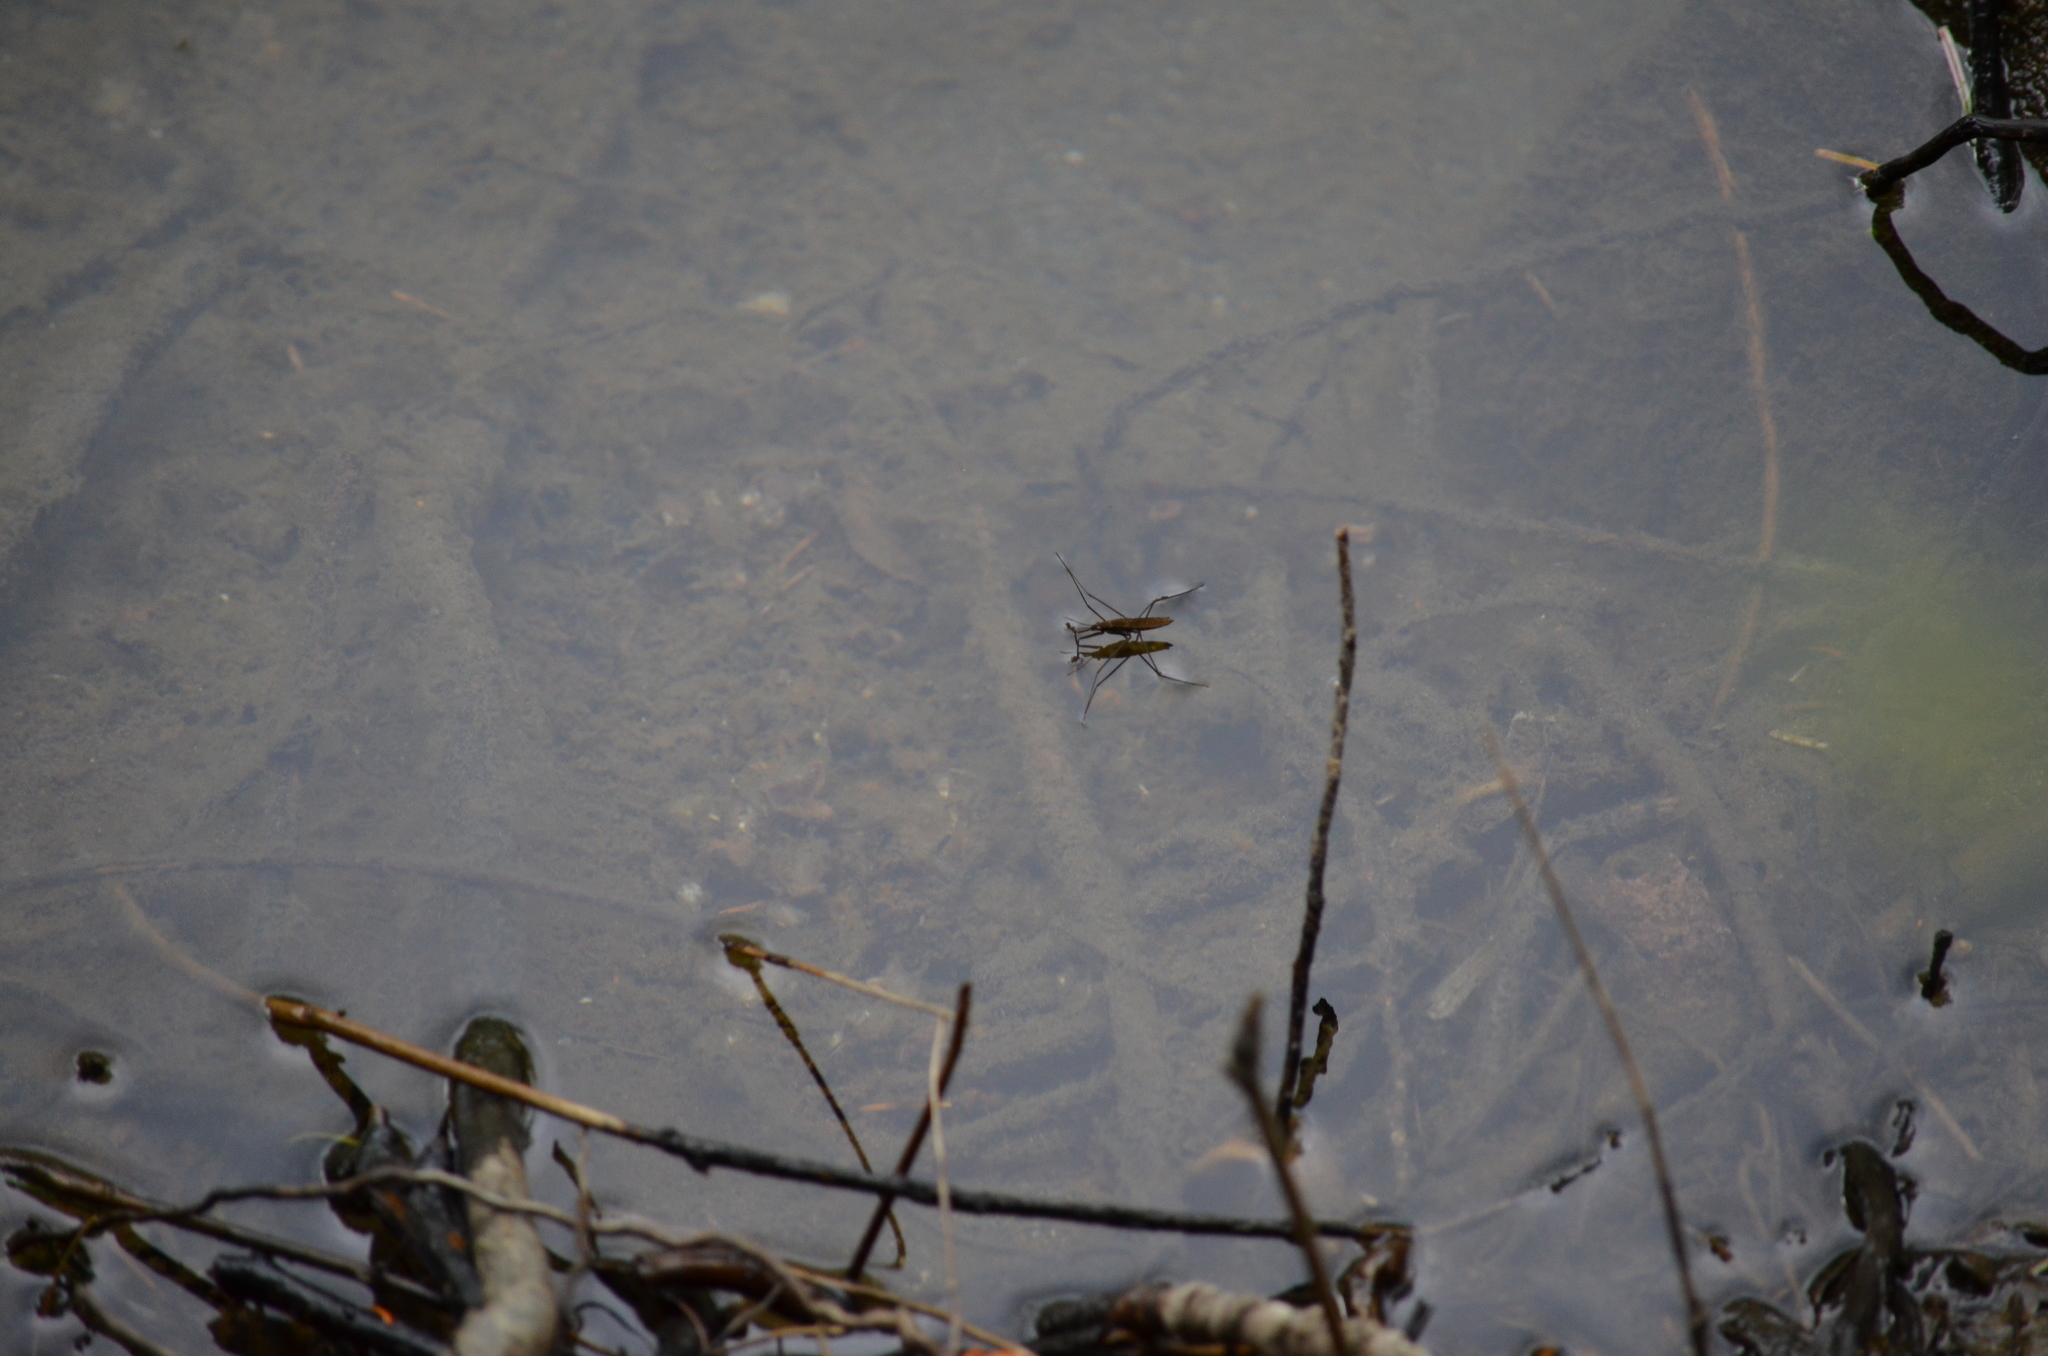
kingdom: Animalia
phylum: Arthropoda
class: Insecta
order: Hemiptera
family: Gerridae
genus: Aquarius
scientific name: Aquarius remigis
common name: Common water strider
